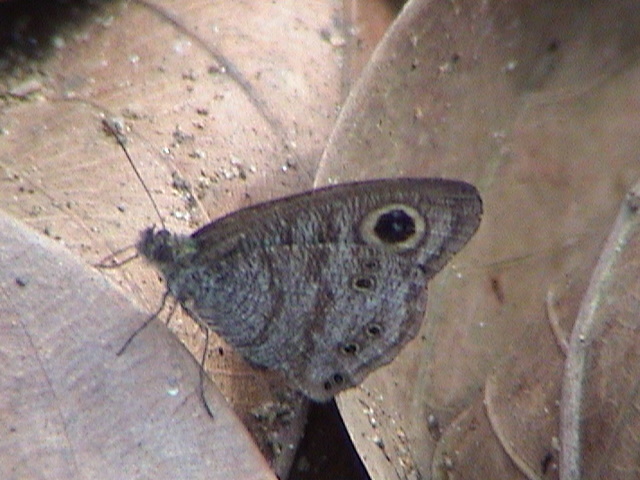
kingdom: Animalia
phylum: Arthropoda
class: Insecta
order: Lepidoptera
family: Nymphalidae
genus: Ypthima
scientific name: Ypthima baldus
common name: Common five-ring
